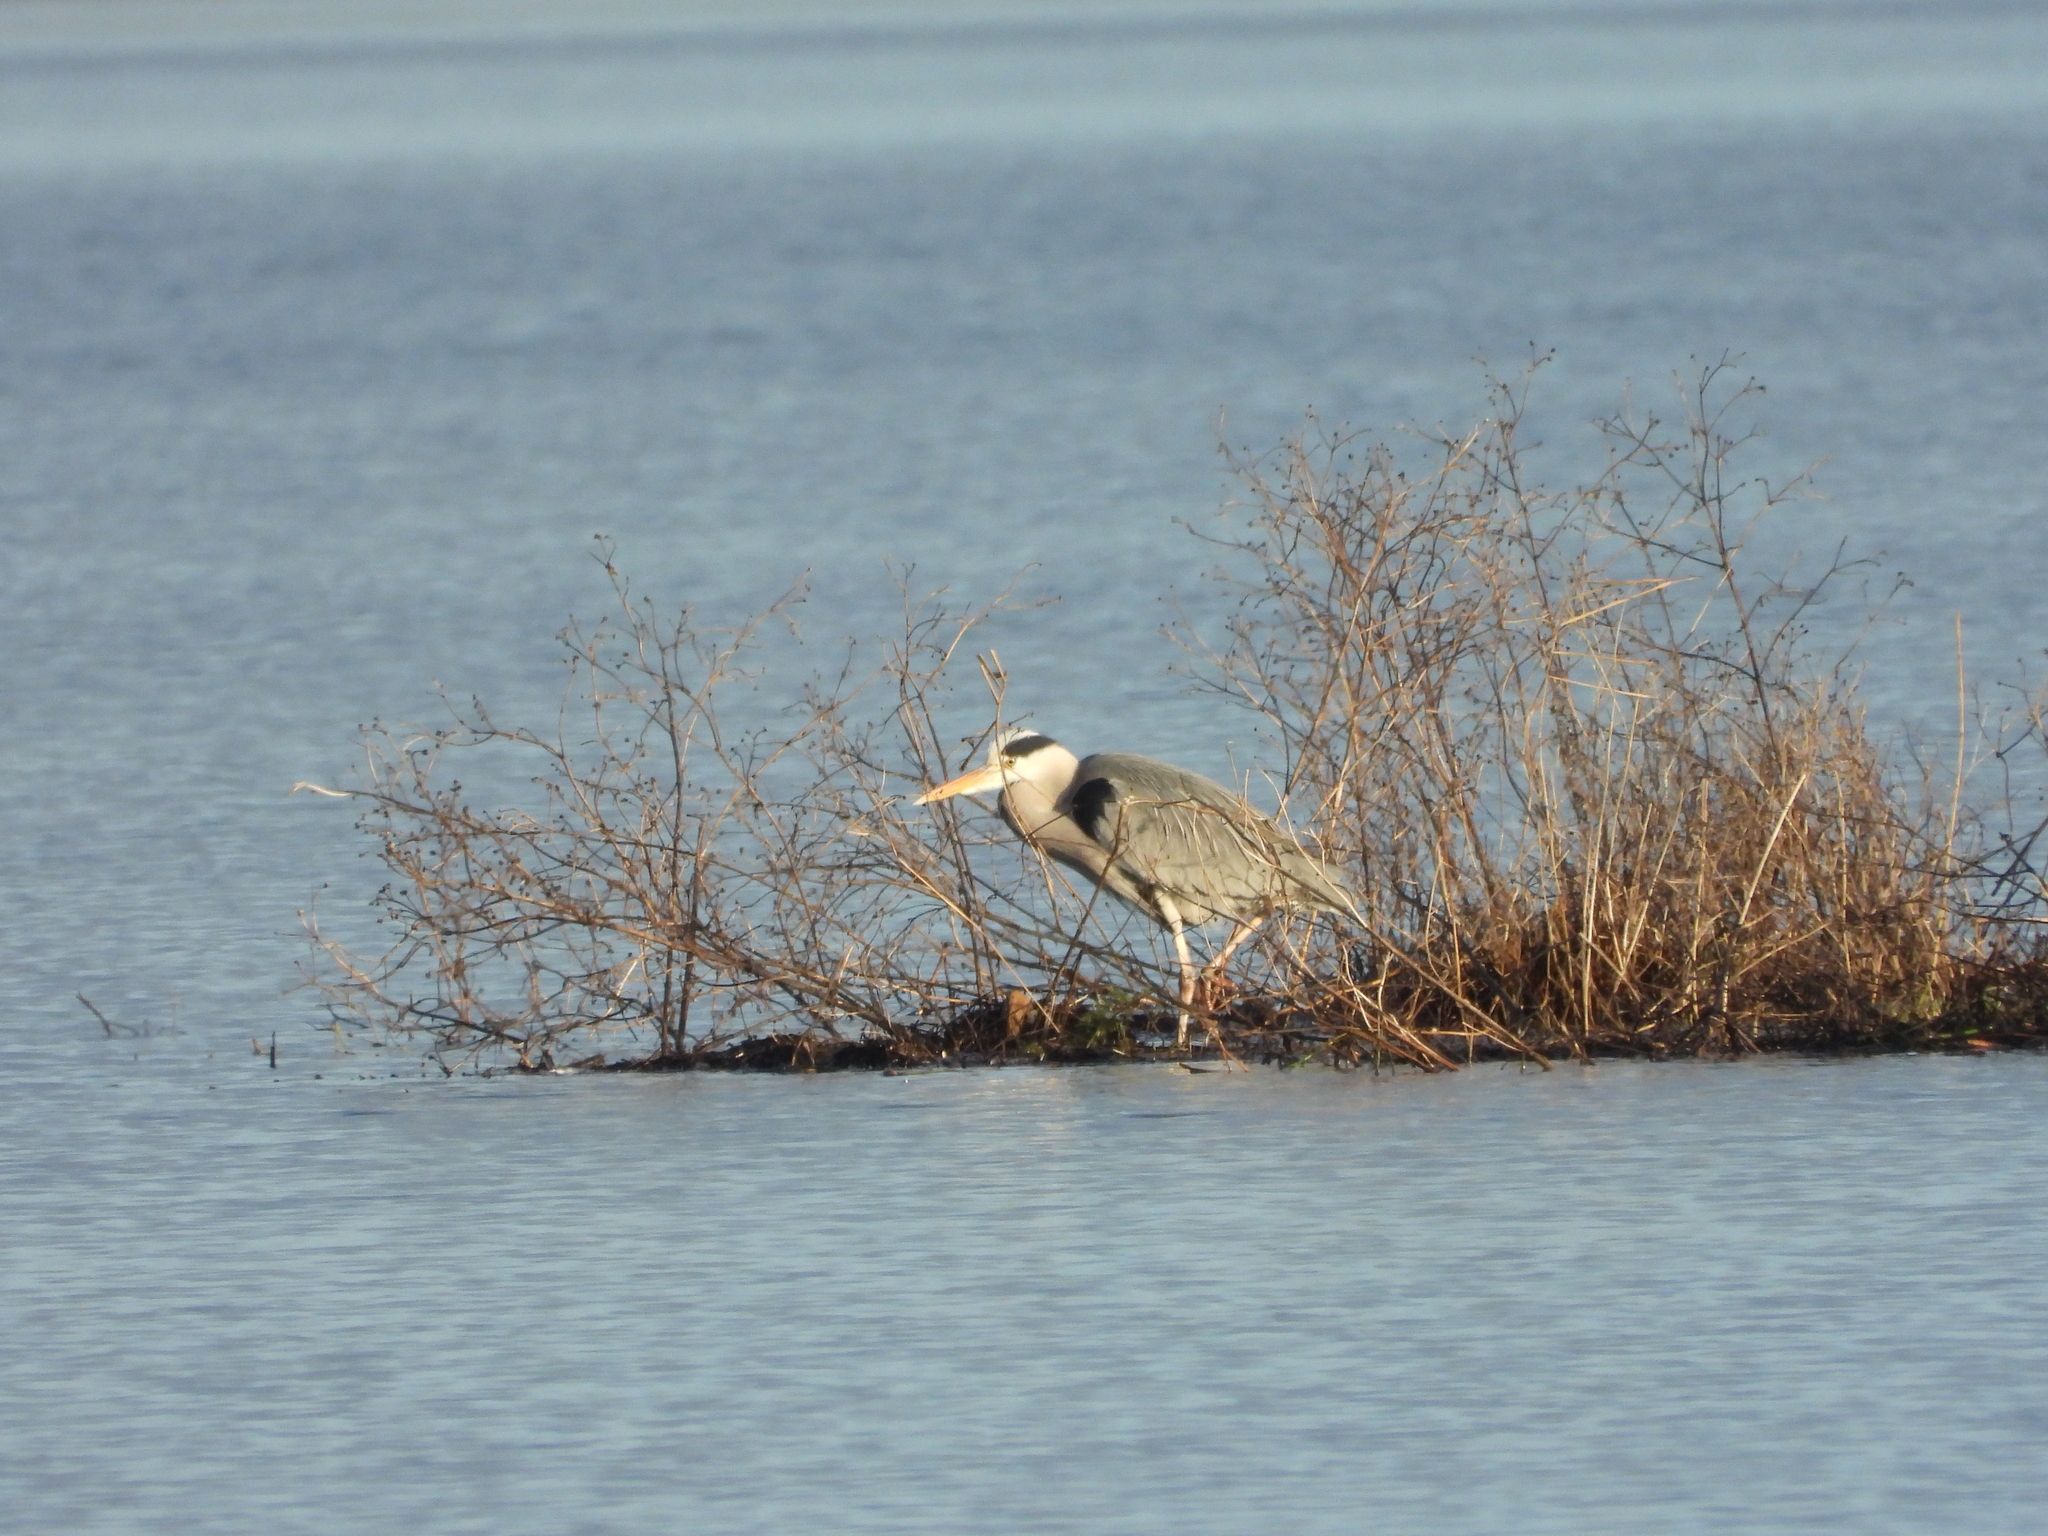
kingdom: Animalia
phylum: Chordata
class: Aves
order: Pelecaniformes
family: Ardeidae
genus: Ardea
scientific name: Ardea cinerea
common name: Grey heron
